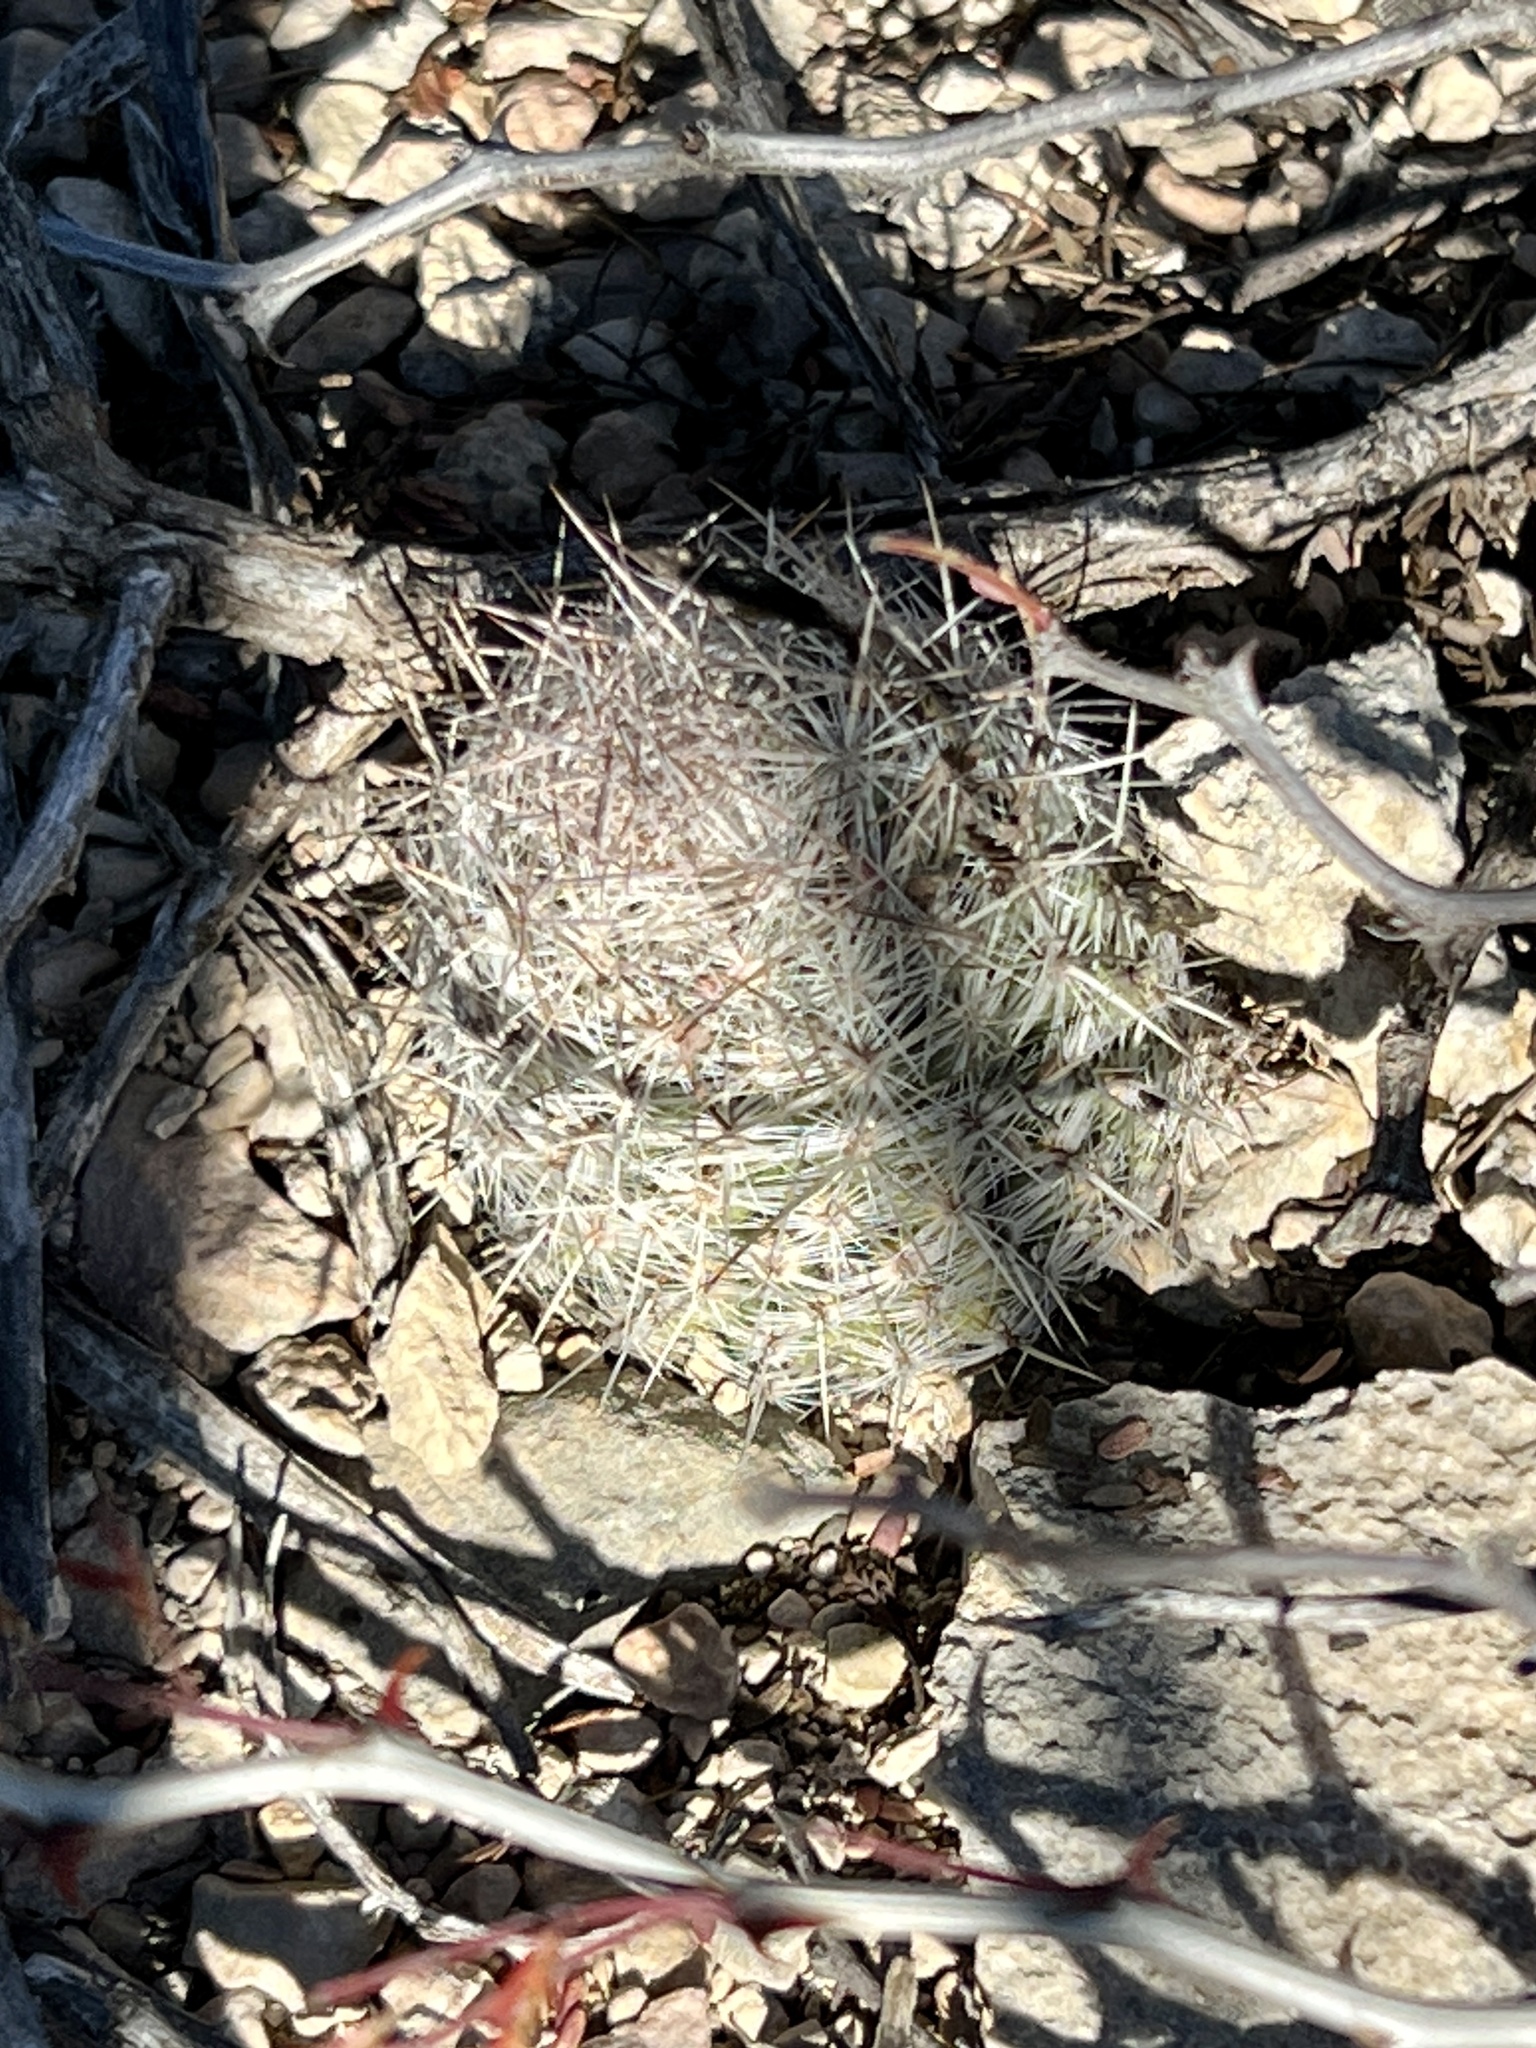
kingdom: Plantae
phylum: Tracheophyta
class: Magnoliopsida
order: Caryophyllales
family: Cactaceae
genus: Pelecyphora
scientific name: Pelecyphora tuberculosa
